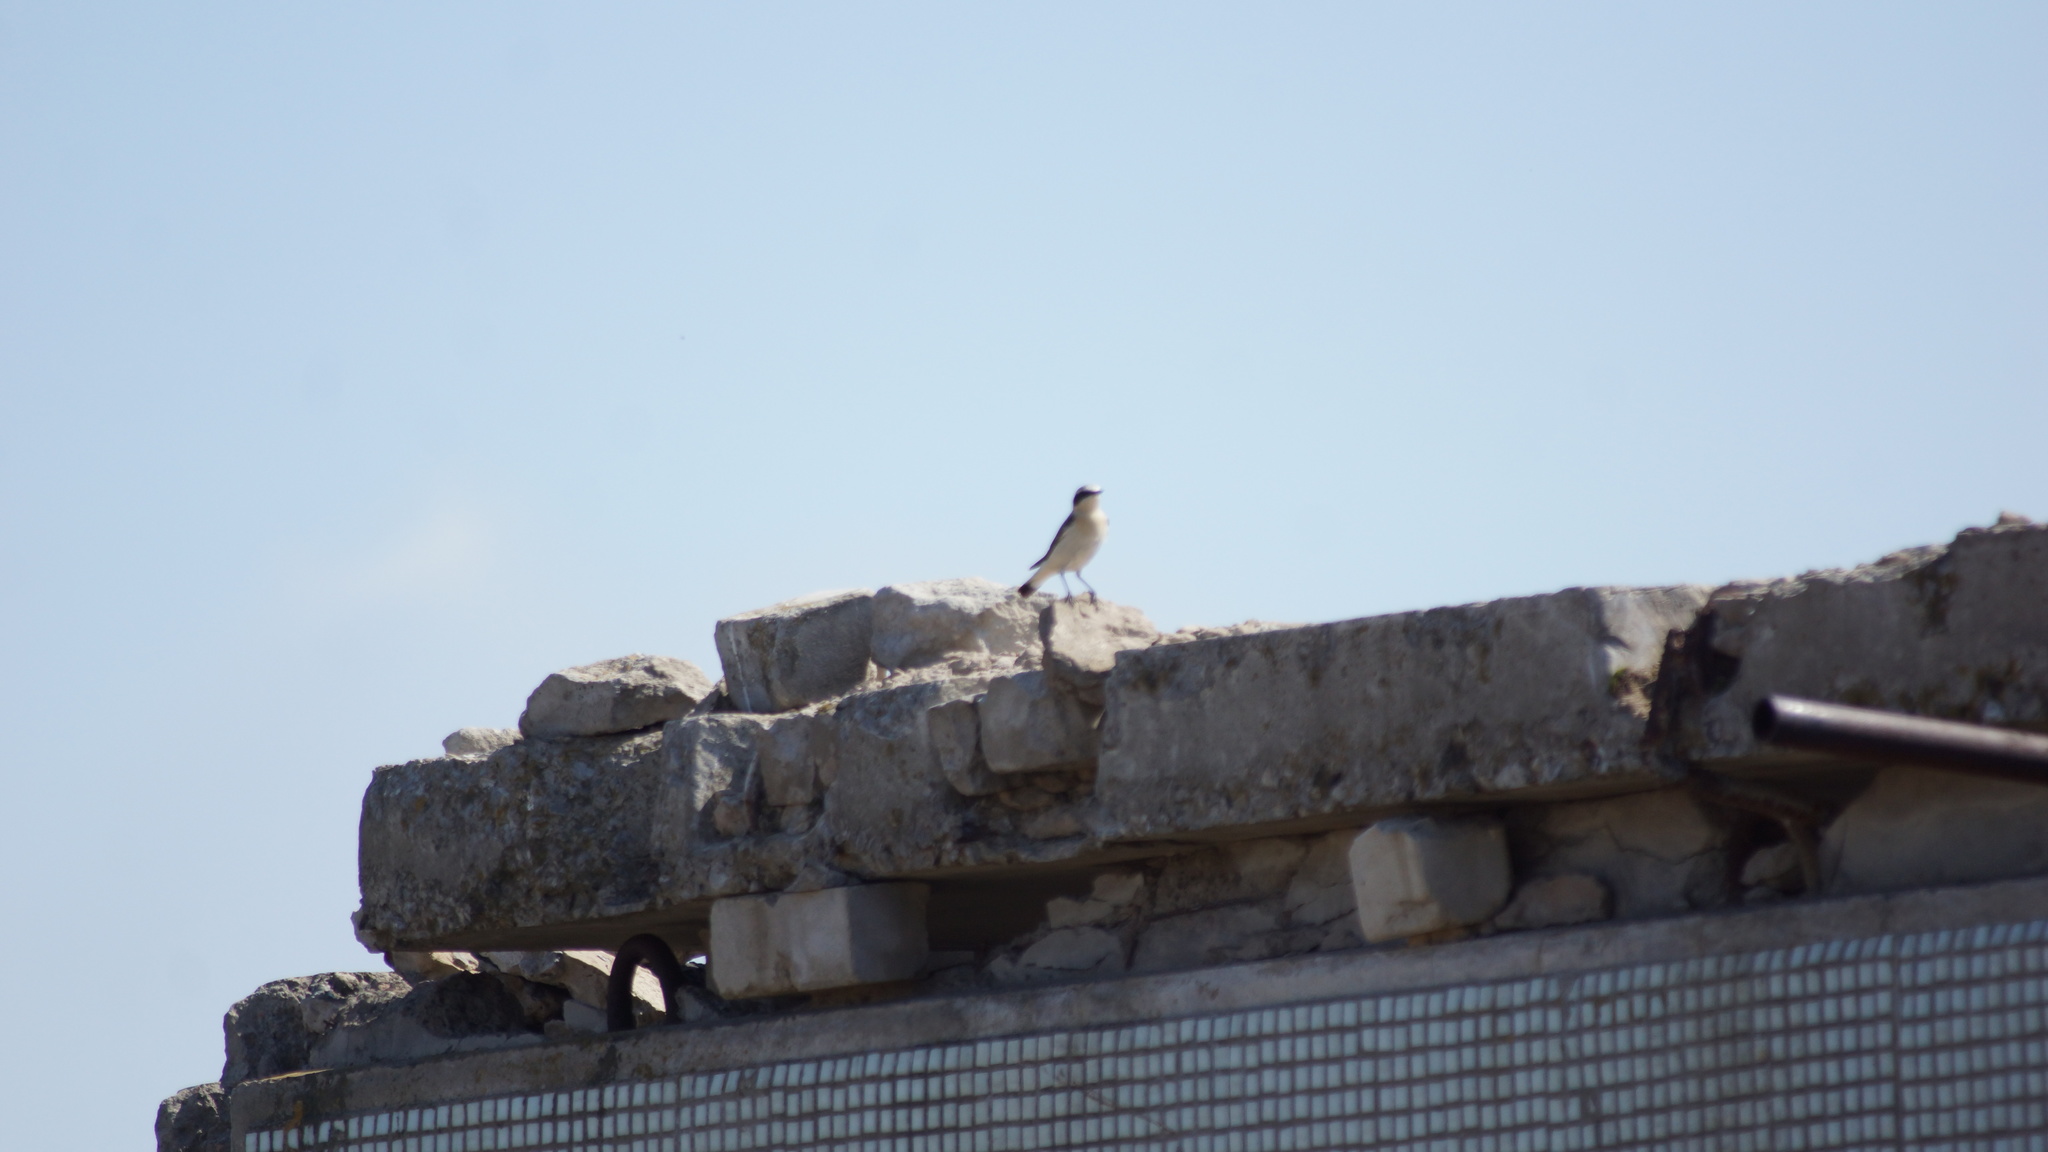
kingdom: Animalia
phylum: Chordata
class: Aves
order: Passeriformes
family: Muscicapidae
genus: Oenanthe
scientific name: Oenanthe oenanthe
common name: Northern wheatear
